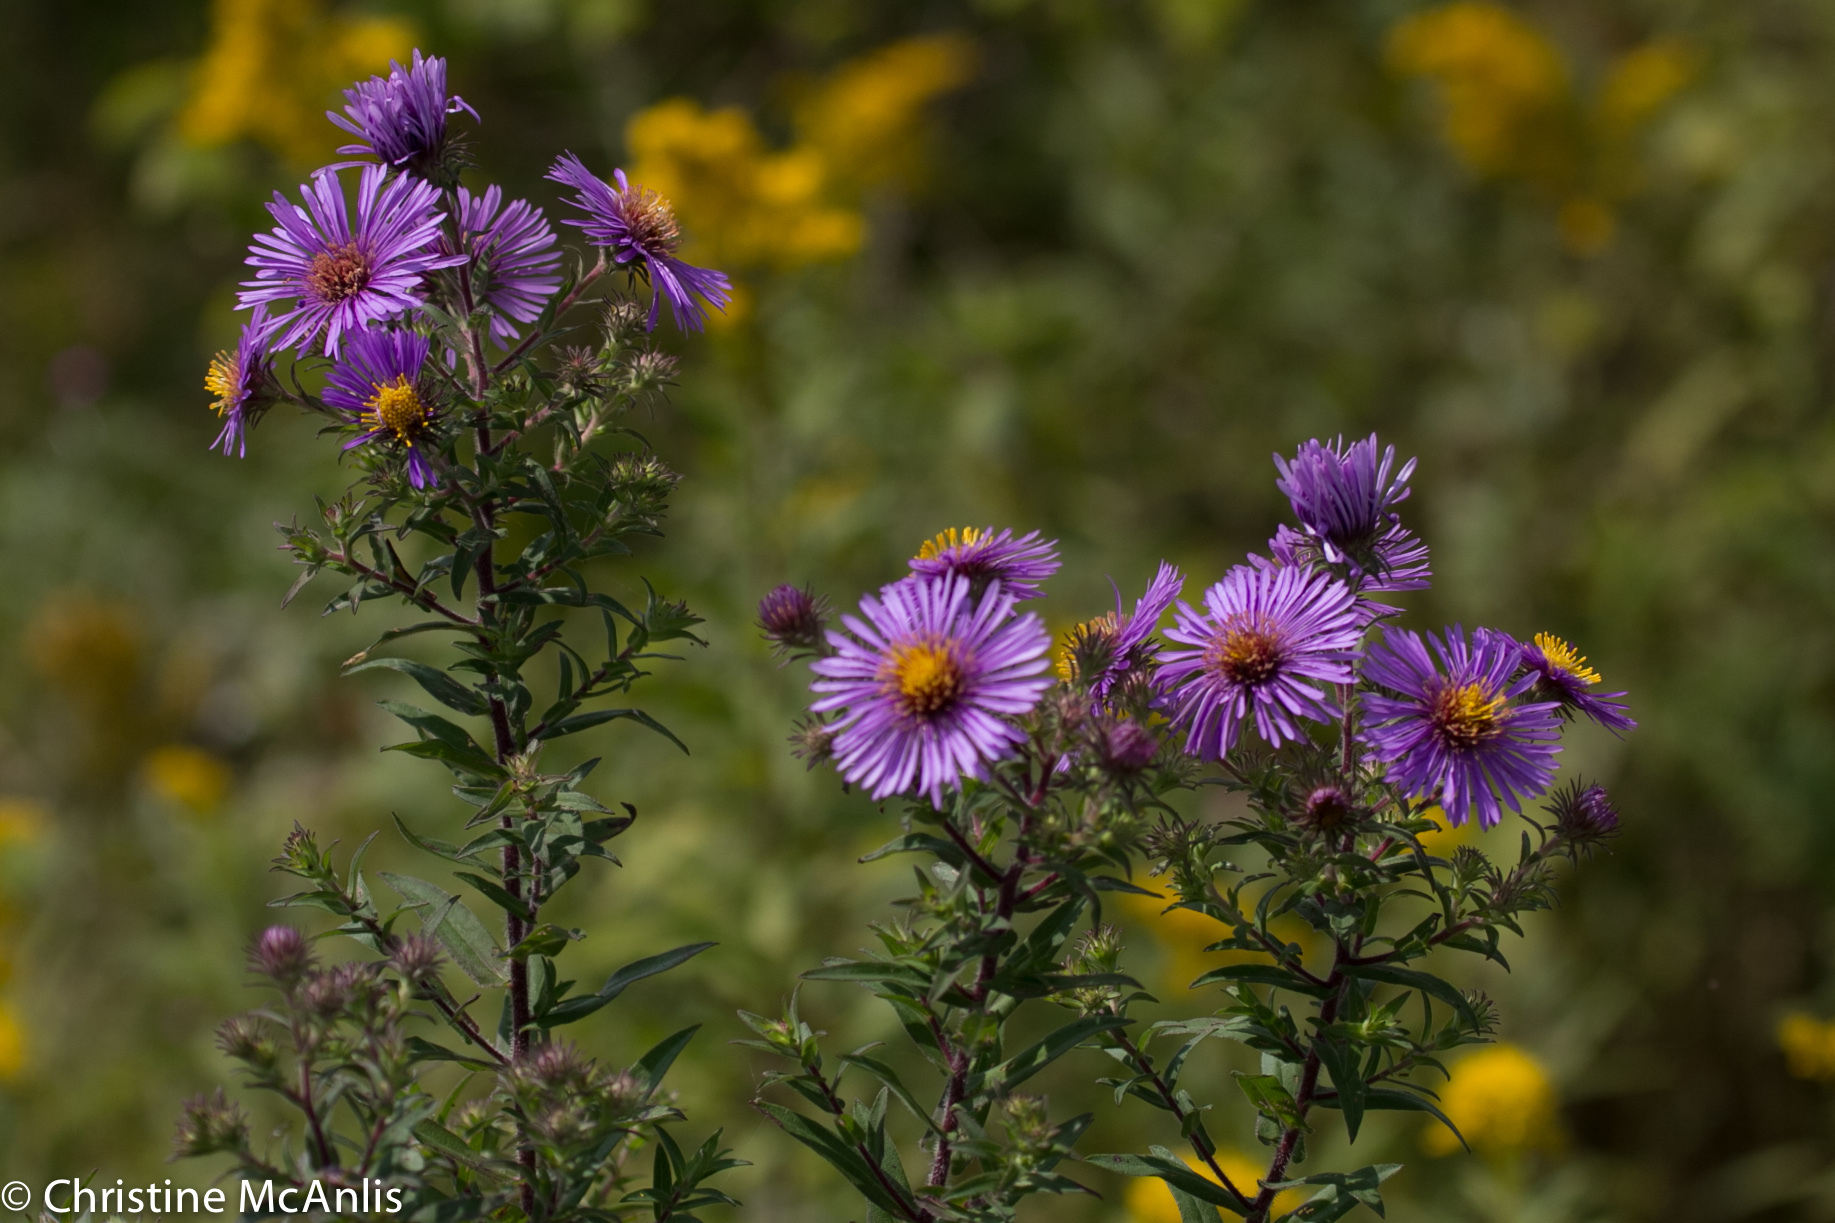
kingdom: Plantae
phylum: Tracheophyta
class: Magnoliopsida
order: Asterales
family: Asteraceae
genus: Symphyotrichum
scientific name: Symphyotrichum novae-angliae
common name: Michaelmas daisy
